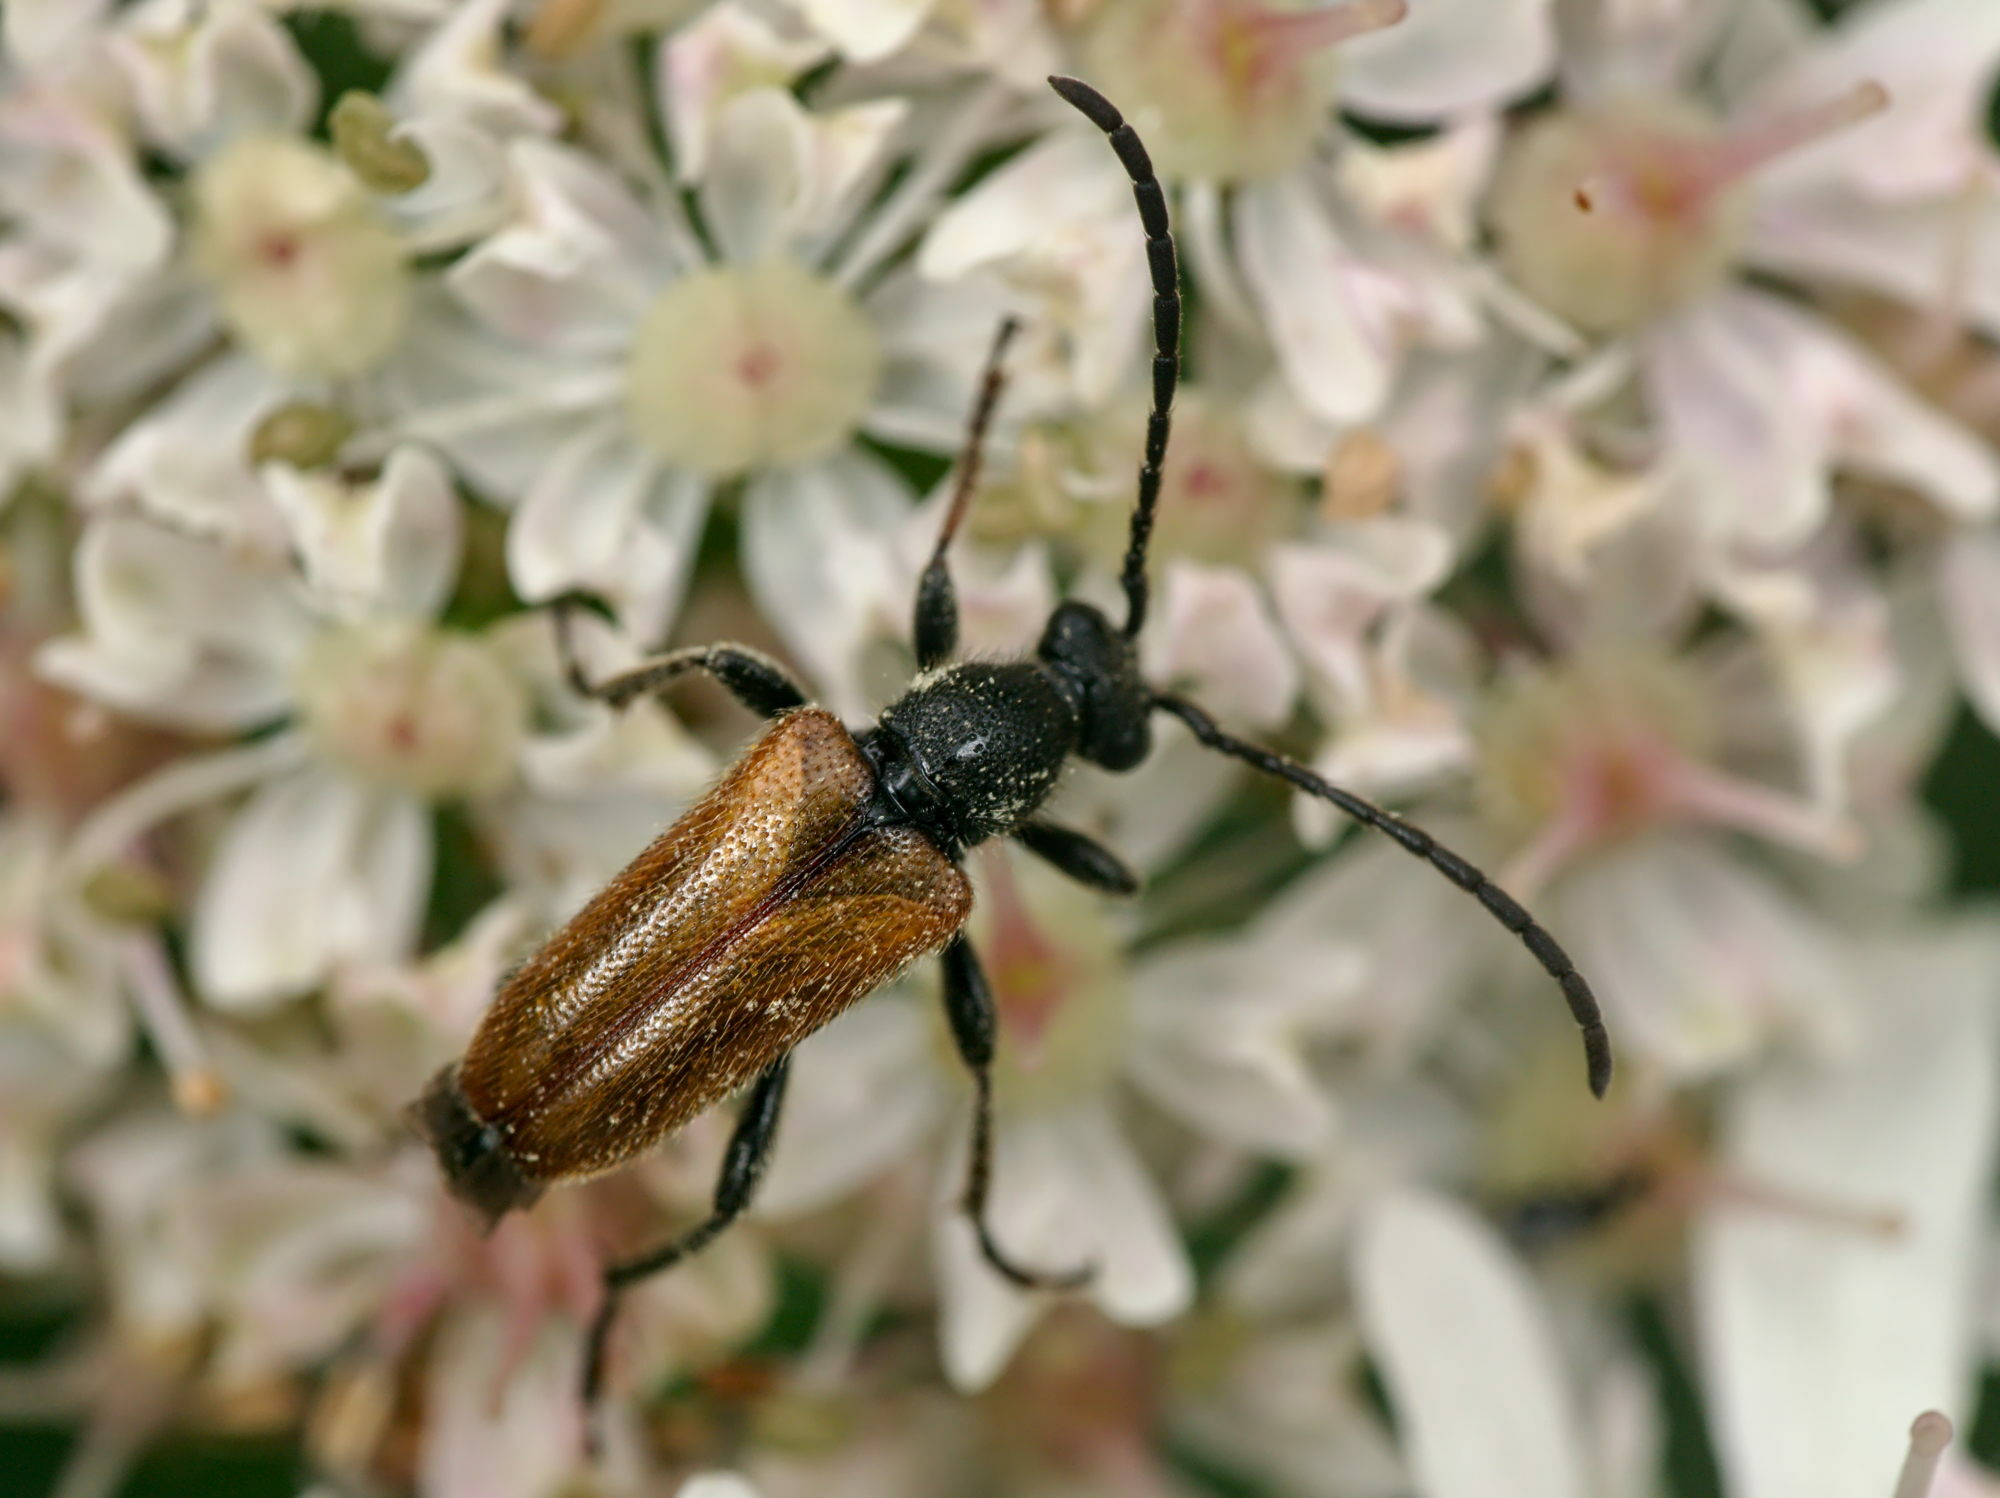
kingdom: Animalia
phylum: Arthropoda
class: Insecta
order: Coleoptera
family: Cerambycidae
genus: Pseudovadonia
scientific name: Pseudovadonia livida
